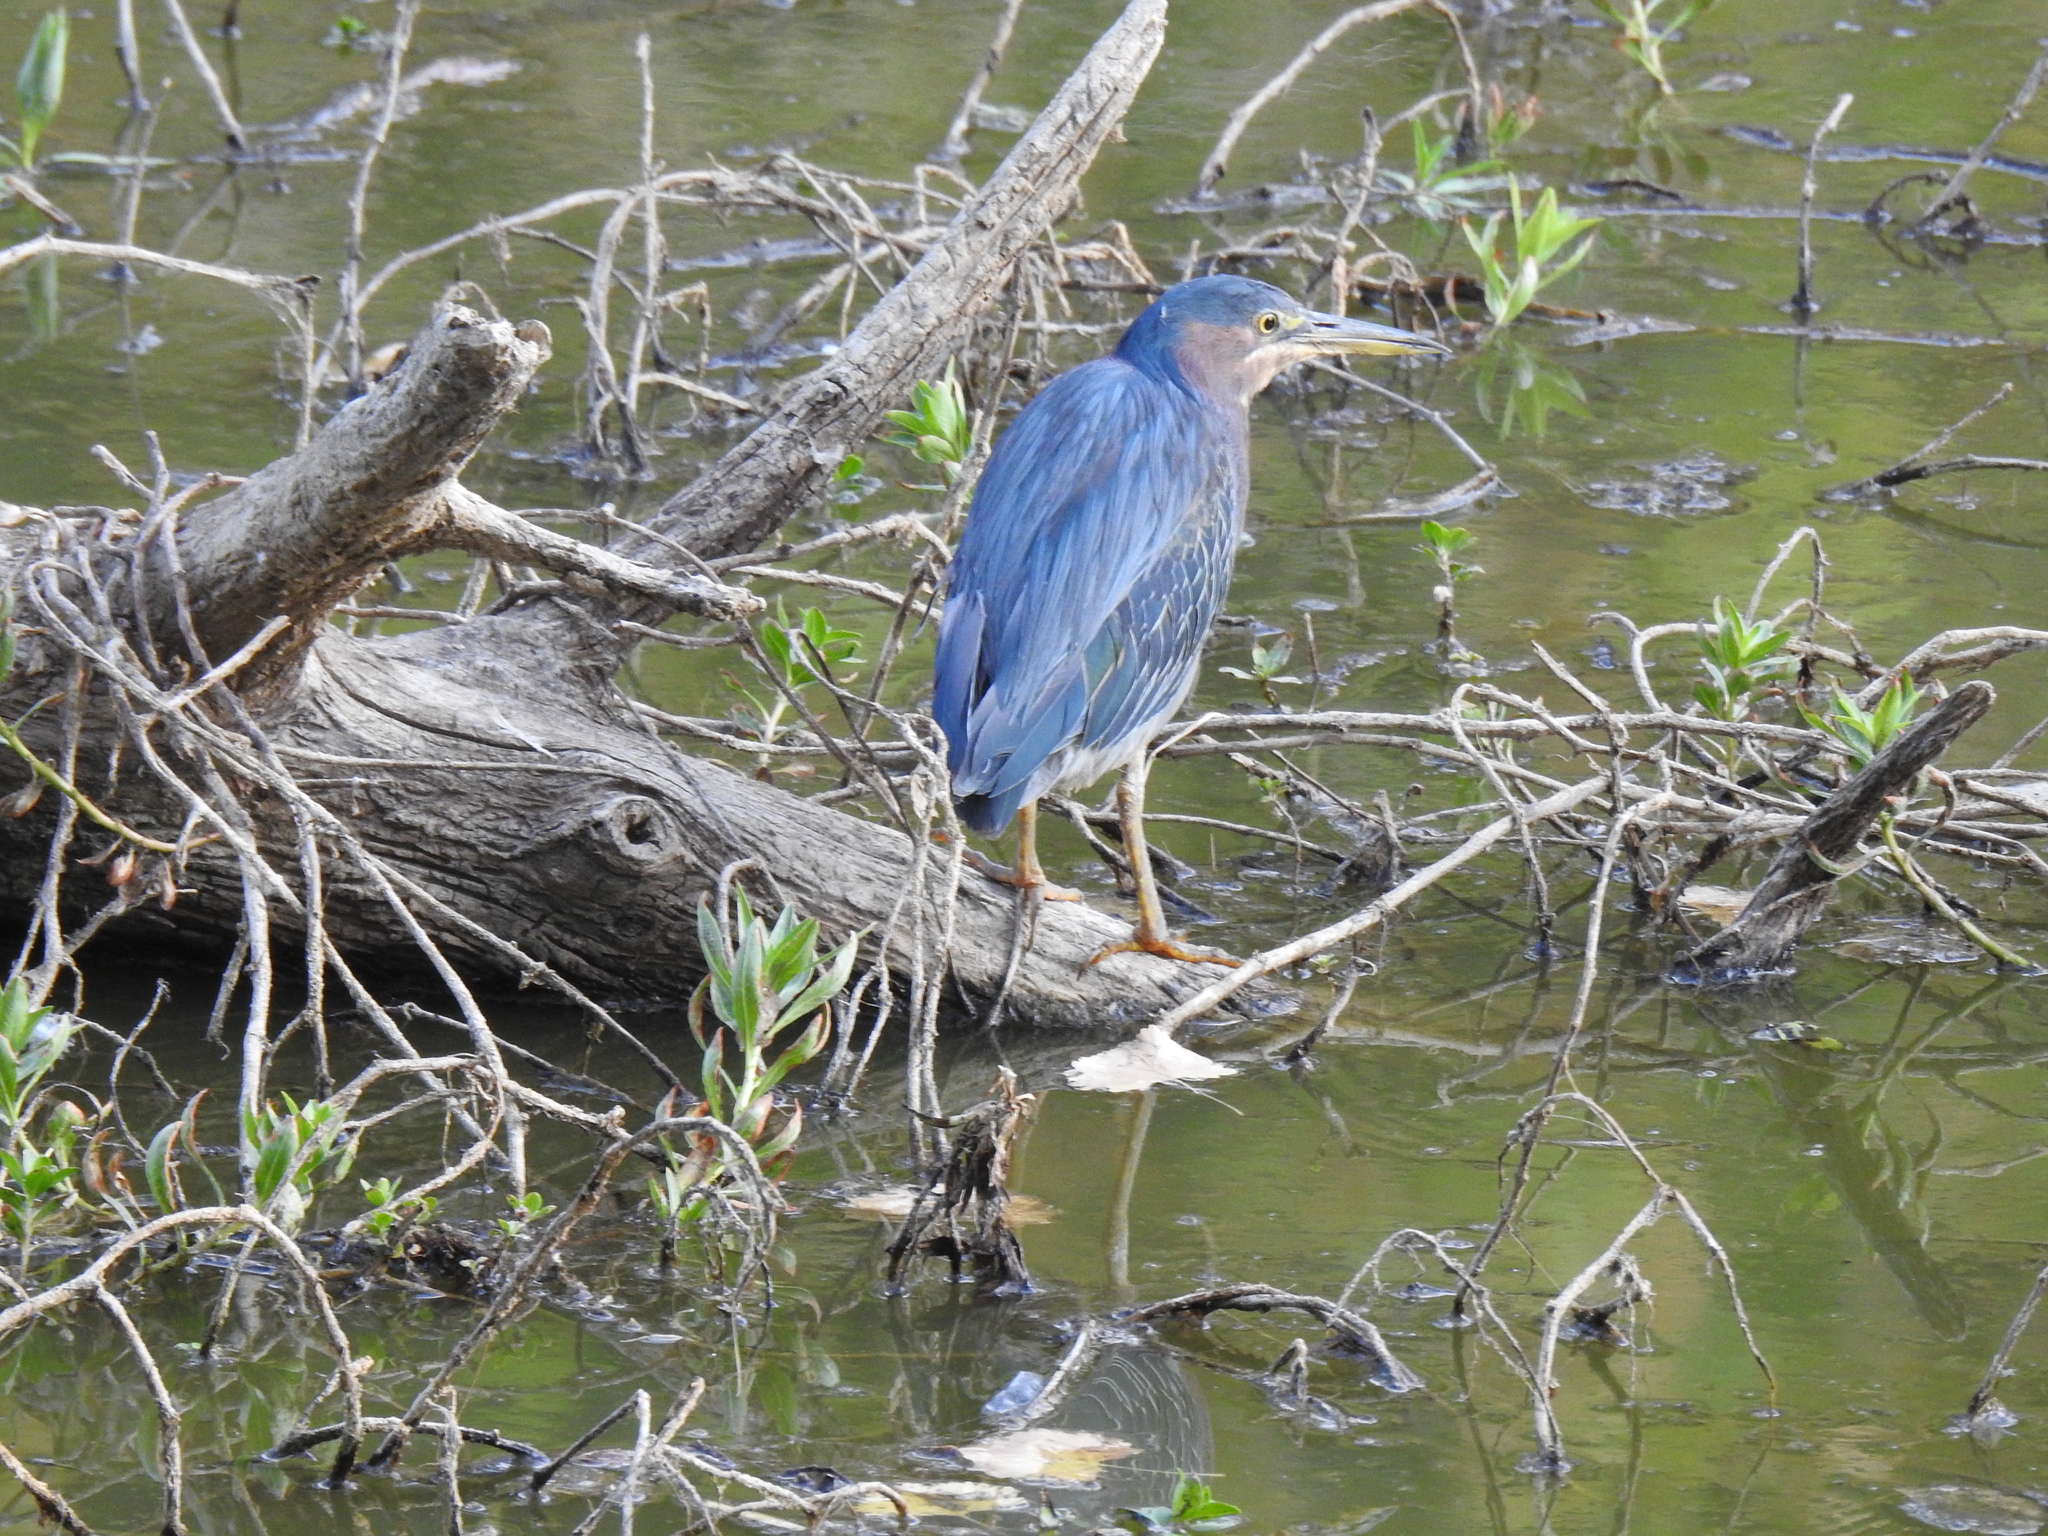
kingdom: Animalia
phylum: Chordata
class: Aves
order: Pelecaniformes
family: Ardeidae
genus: Butorides
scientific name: Butorides virescens
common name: Green heron
